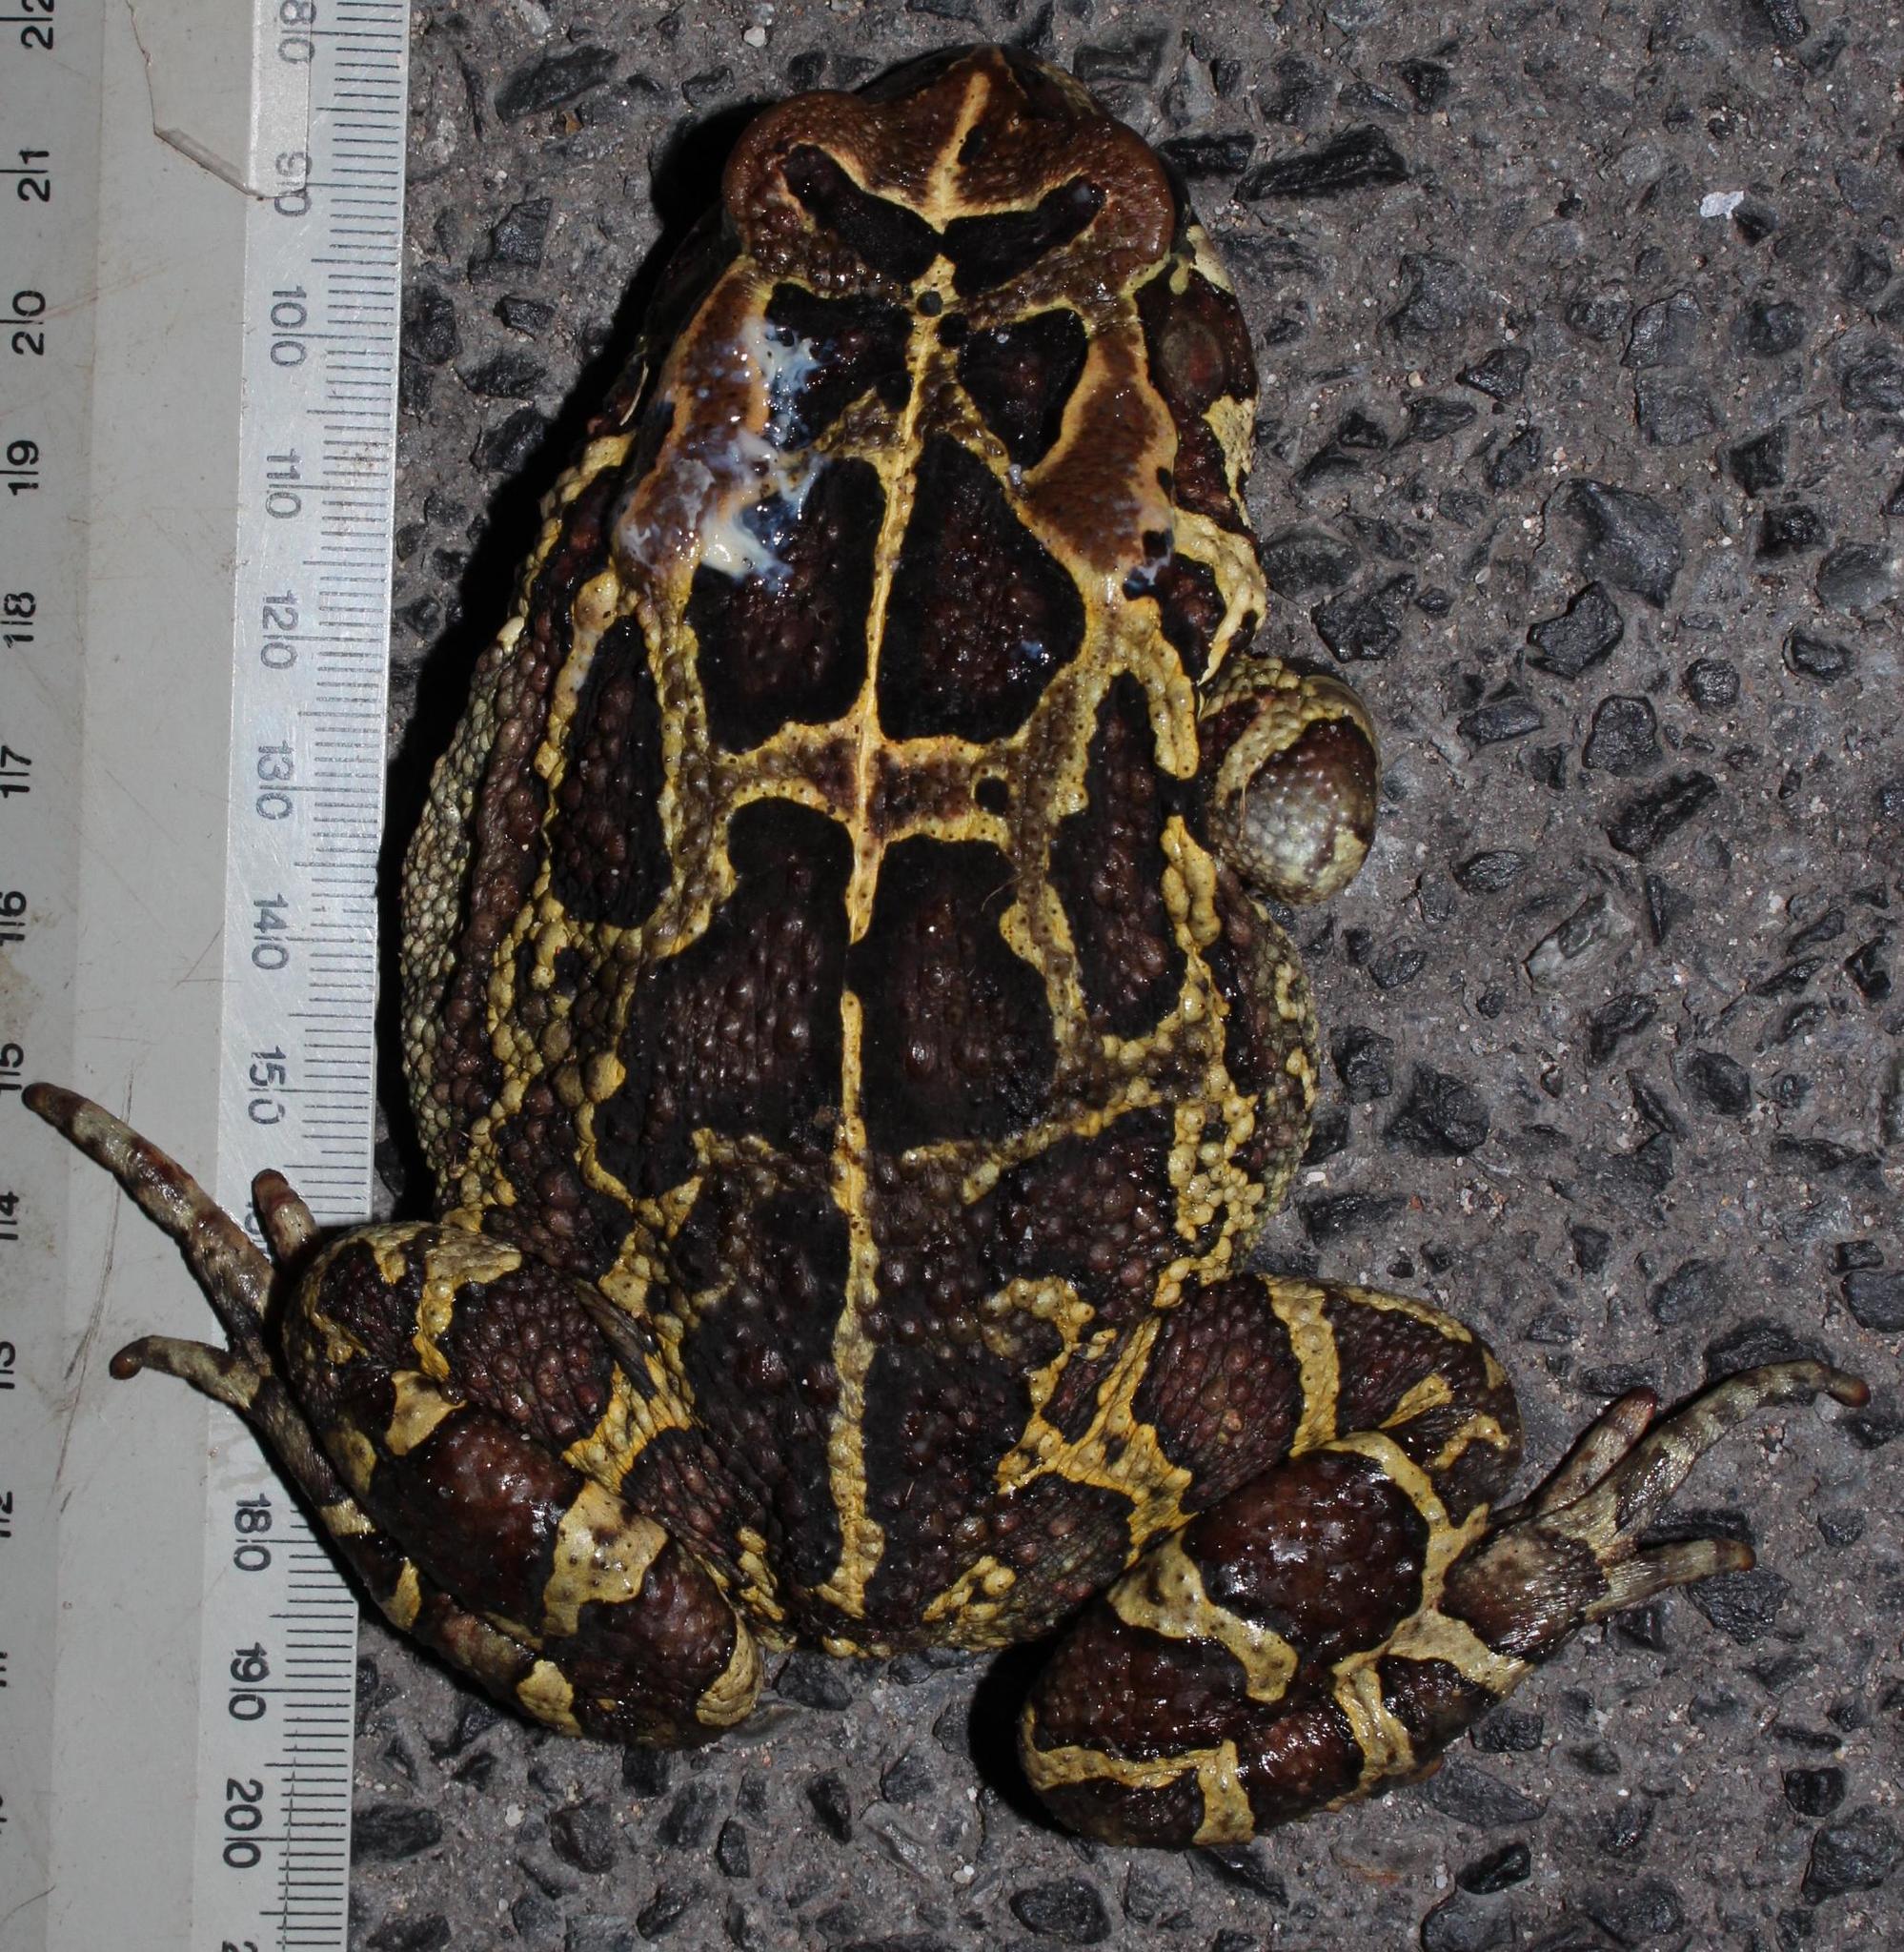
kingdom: Animalia
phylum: Chordata
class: Amphibia
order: Anura
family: Bufonidae
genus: Sclerophrys
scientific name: Sclerophrys pantherina
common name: Panther toad
